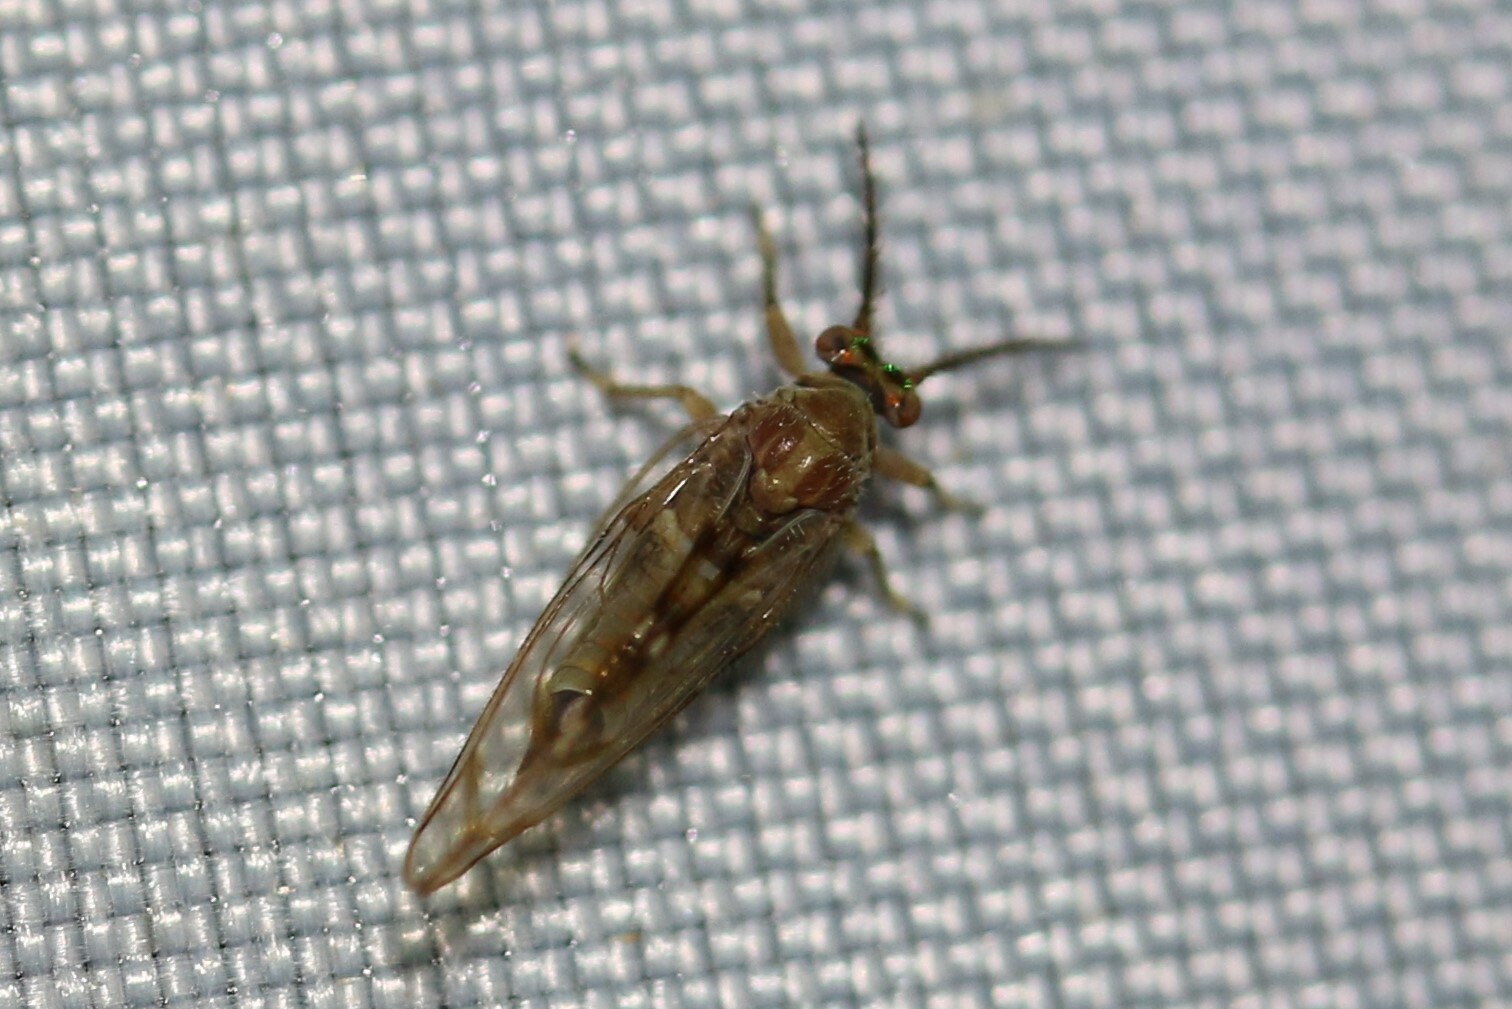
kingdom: Animalia
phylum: Arthropoda
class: Insecta
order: Hemiptera
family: Homotomidae
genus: Homotoma
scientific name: Homotoma ficus
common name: Fig psillid
